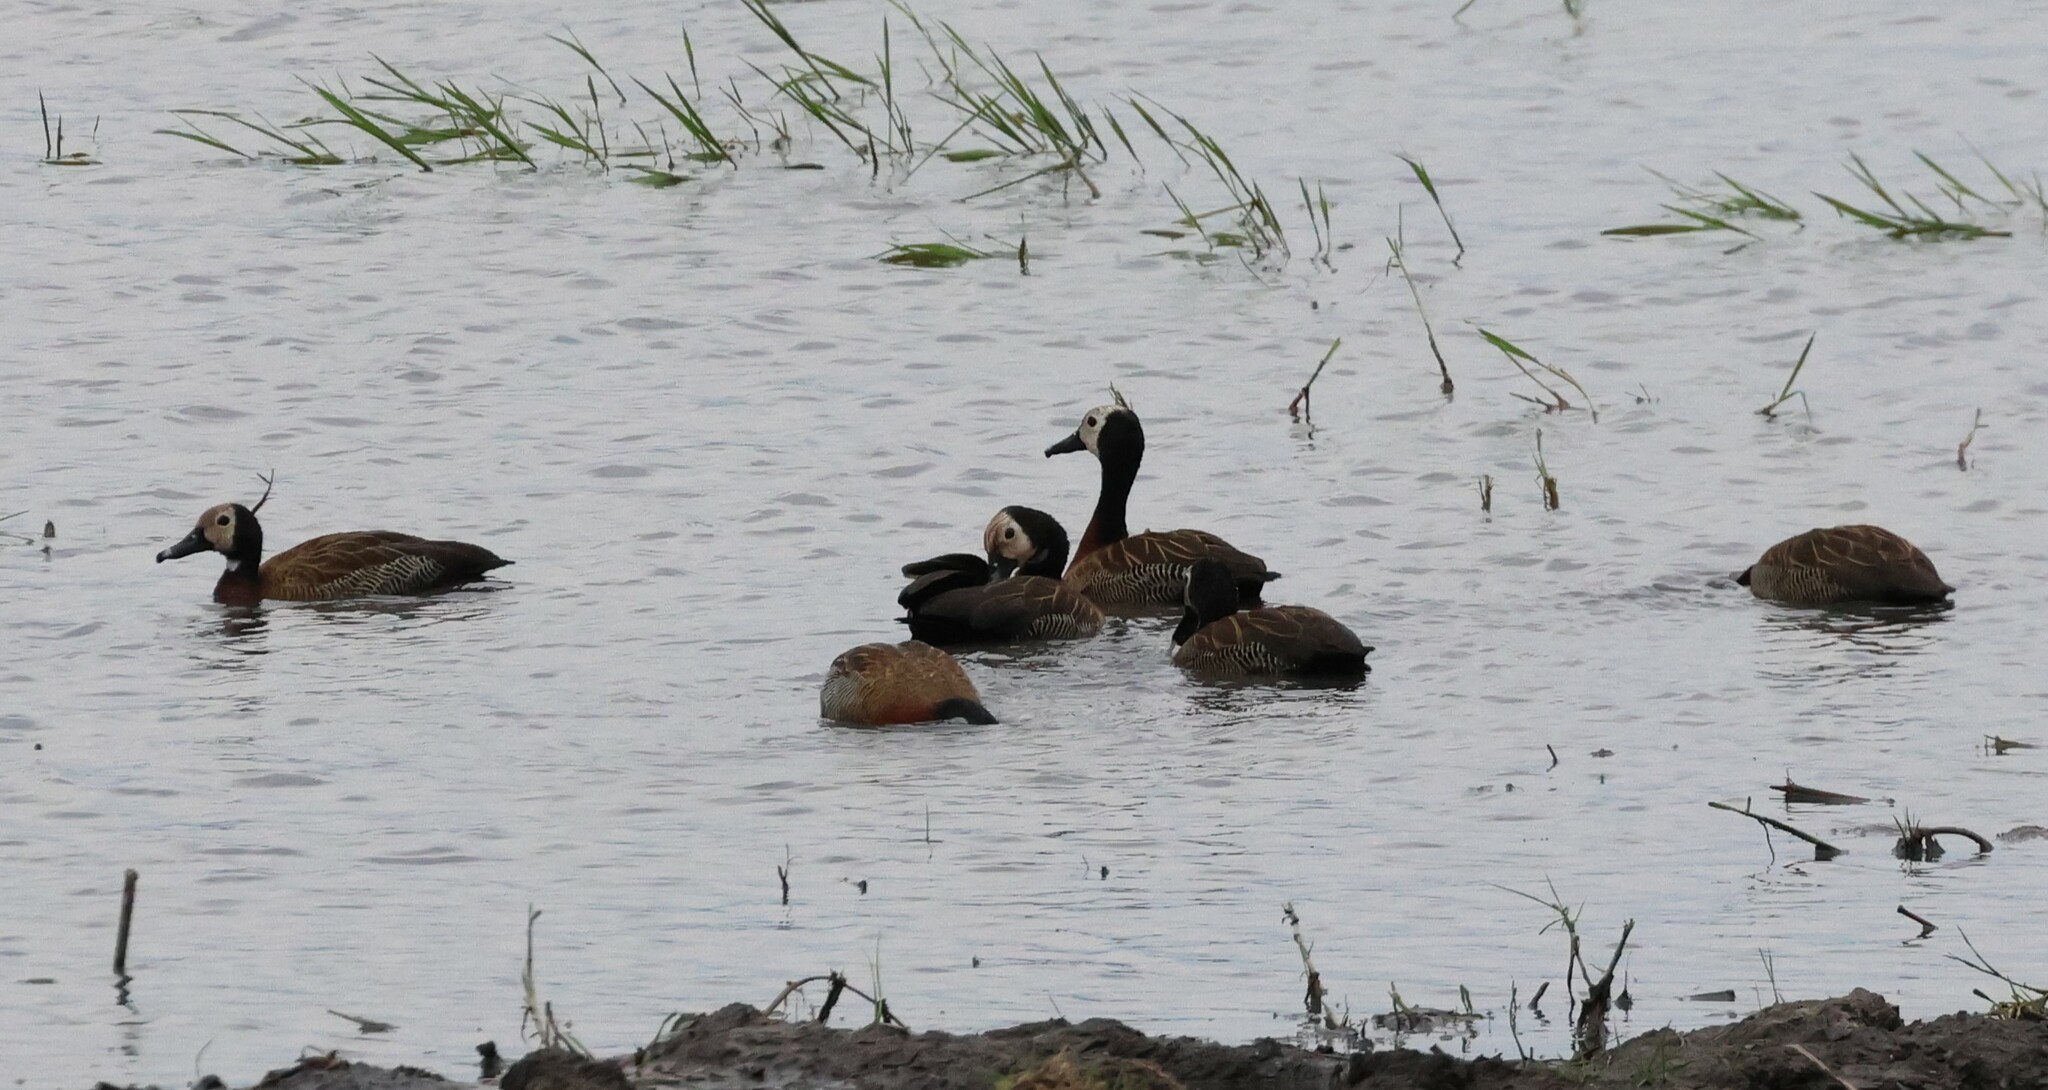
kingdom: Animalia
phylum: Chordata
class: Aves
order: Anseriformes
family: Anatidae
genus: Dendrocygna
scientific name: Dendrocygna viduata
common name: White-faced whistling duck
